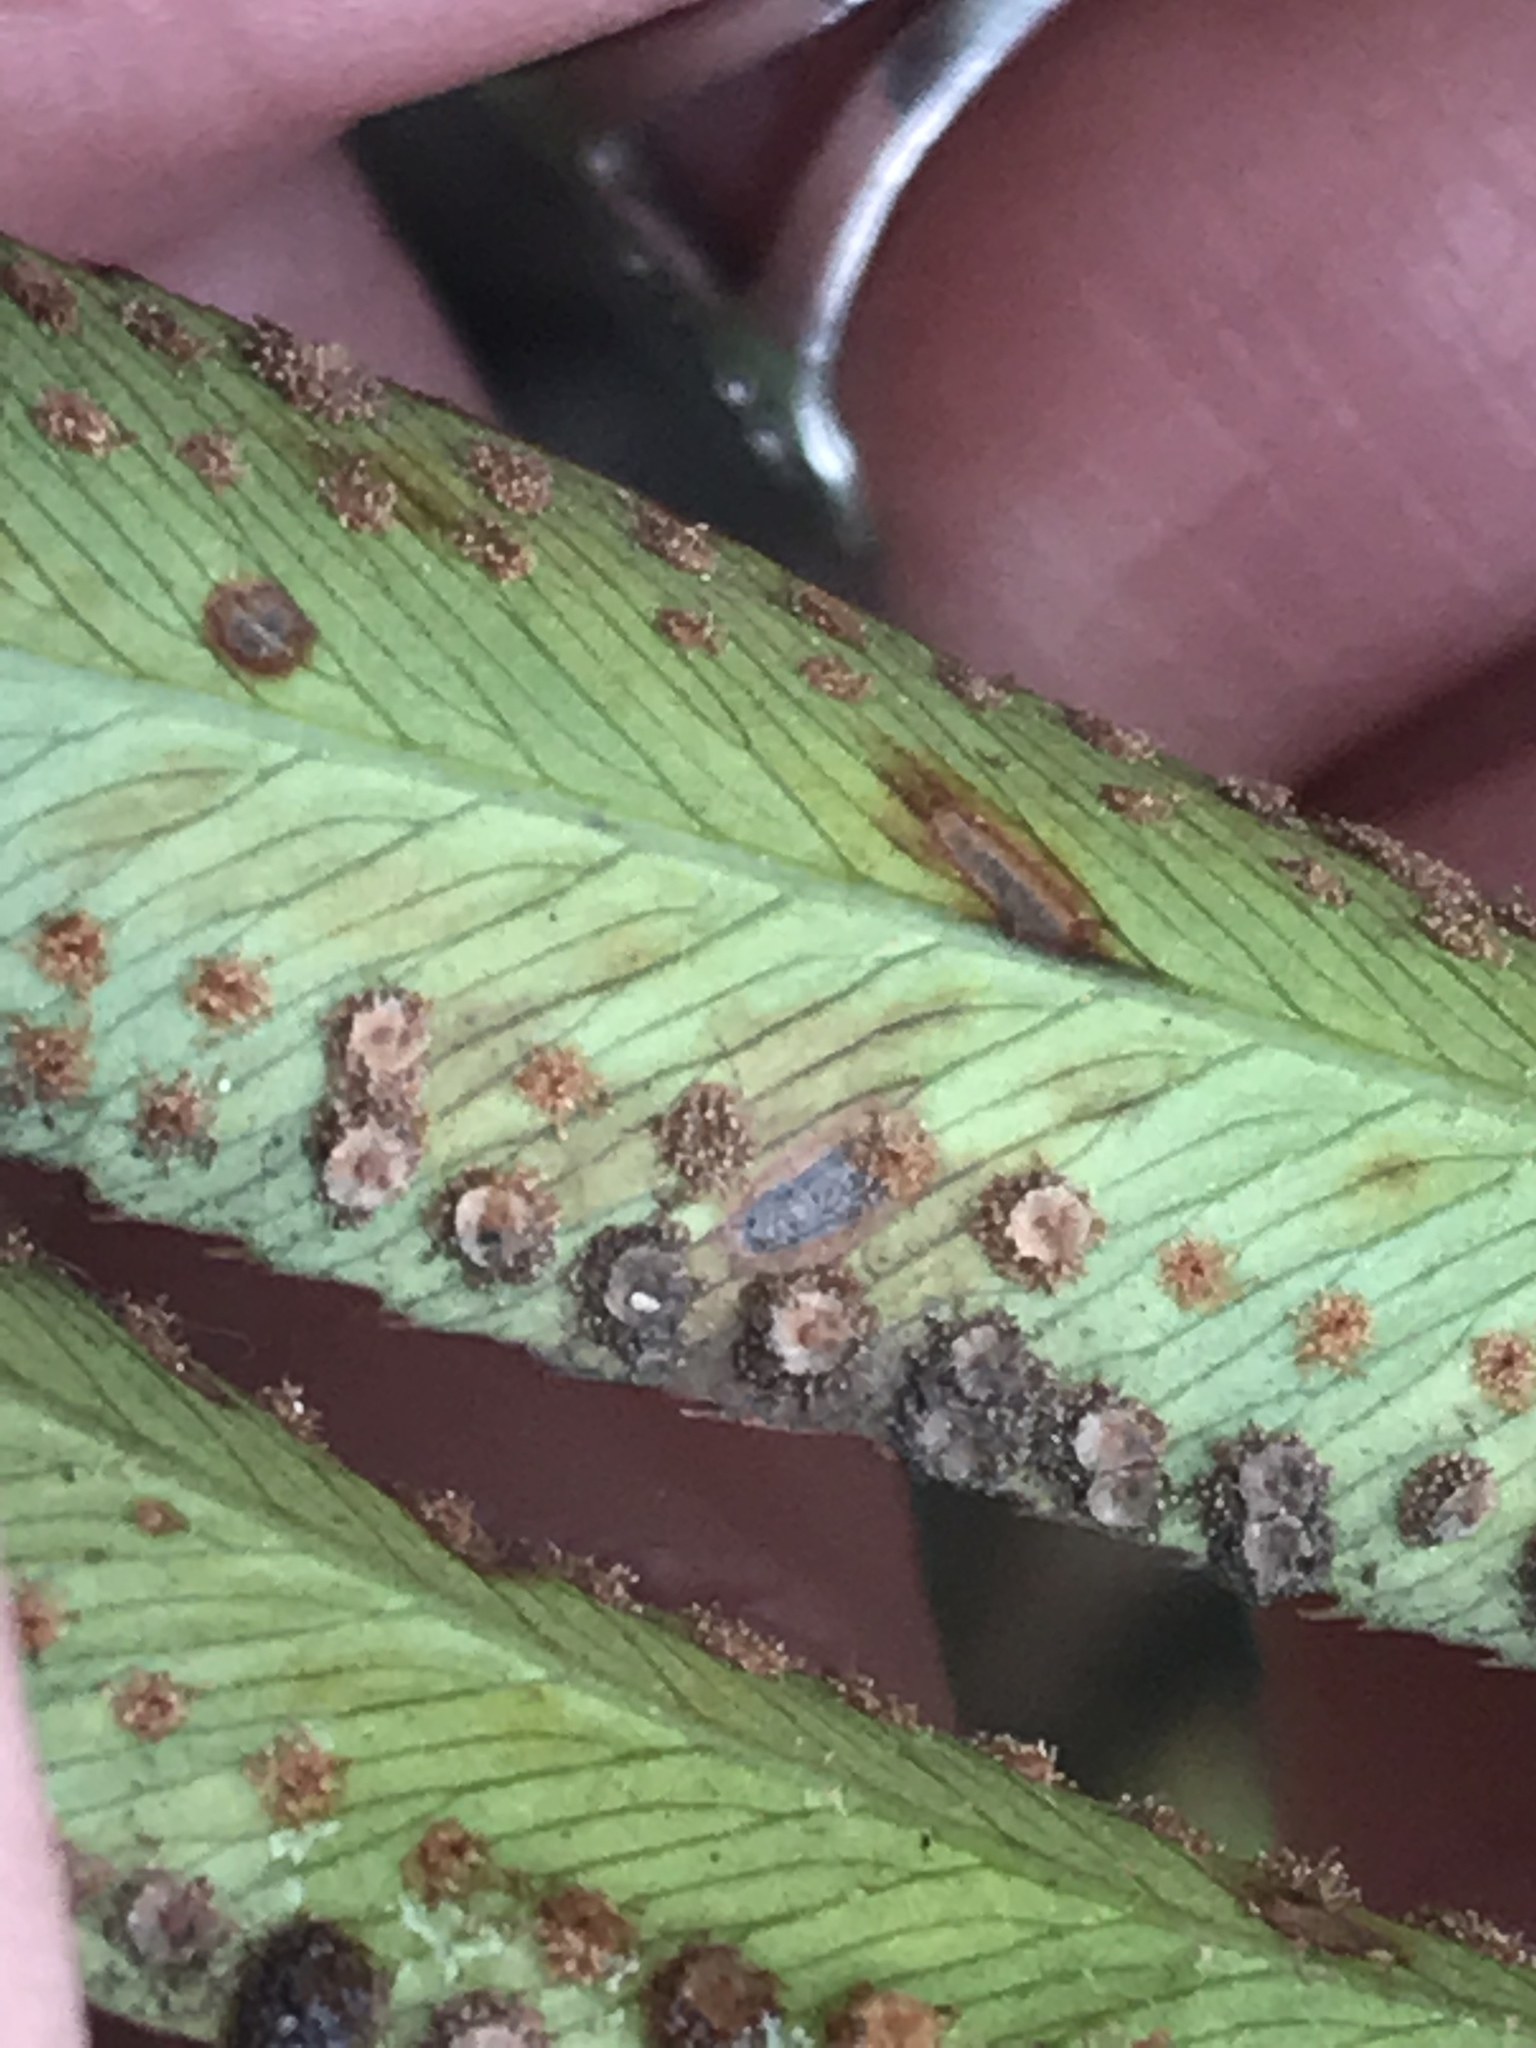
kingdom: Plantae
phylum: Tracheophyta
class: Polypodiopsida
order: Polypodiales
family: Dryopteridaceae
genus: Phanerophlebia
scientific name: Phanerophlebia umbonata
